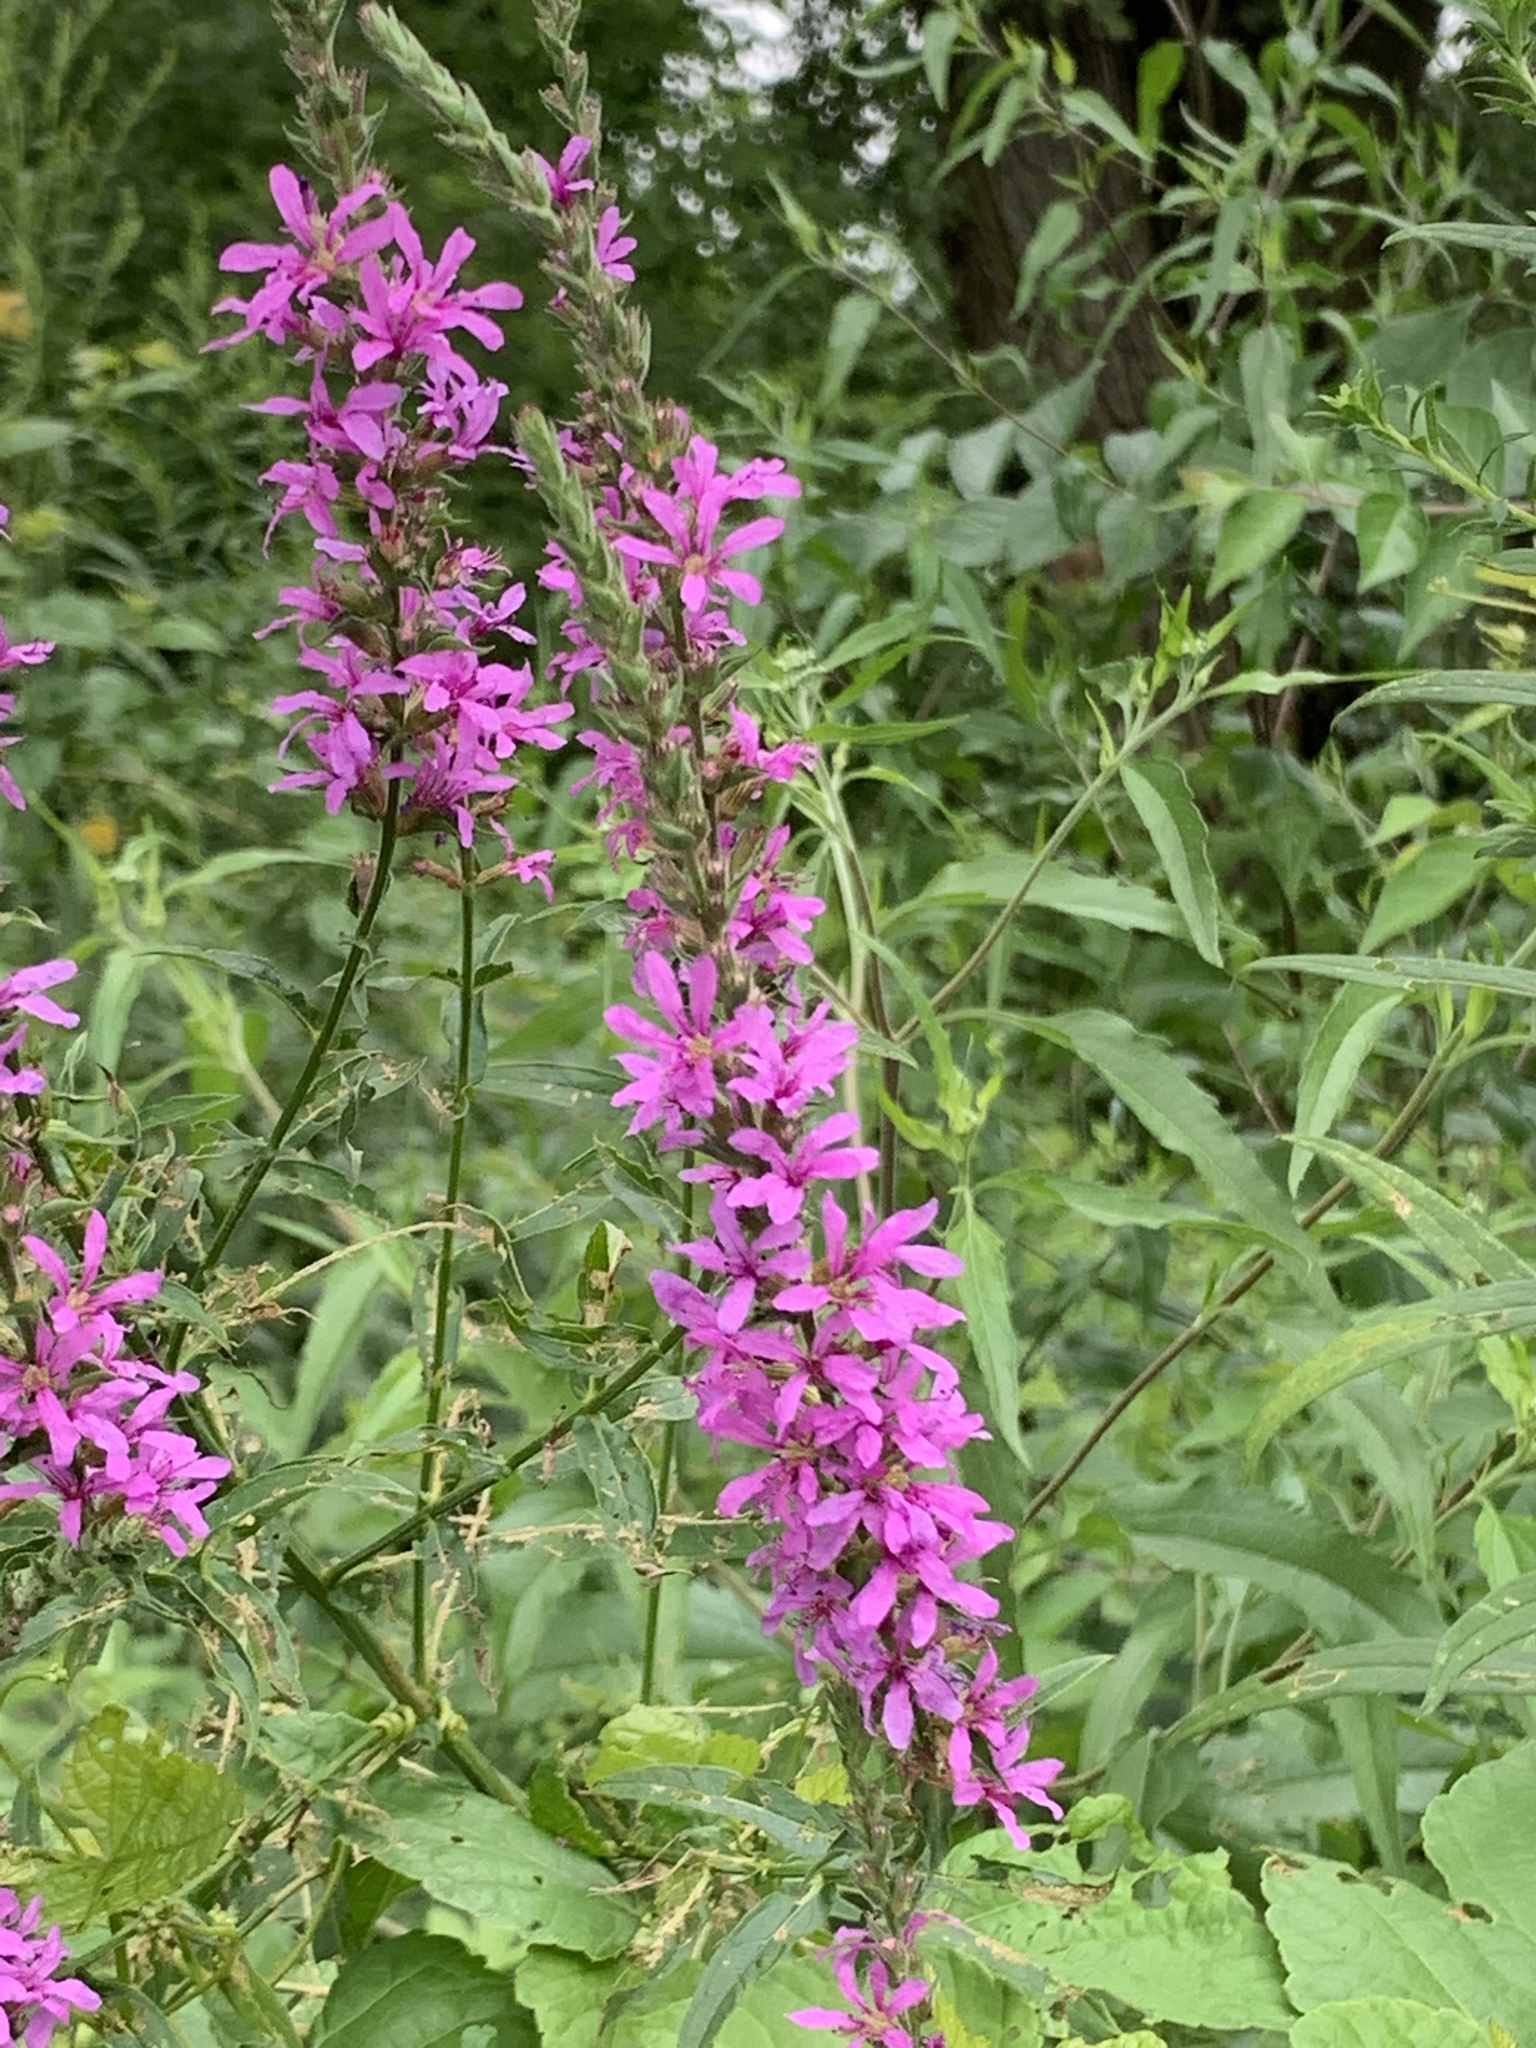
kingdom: Plantae
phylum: Tracheophyta
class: Magnoliopsida
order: Myrtales
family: Lythraceae
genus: Lythrum
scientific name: Lythrum salicaria
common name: Purple loosestrife
